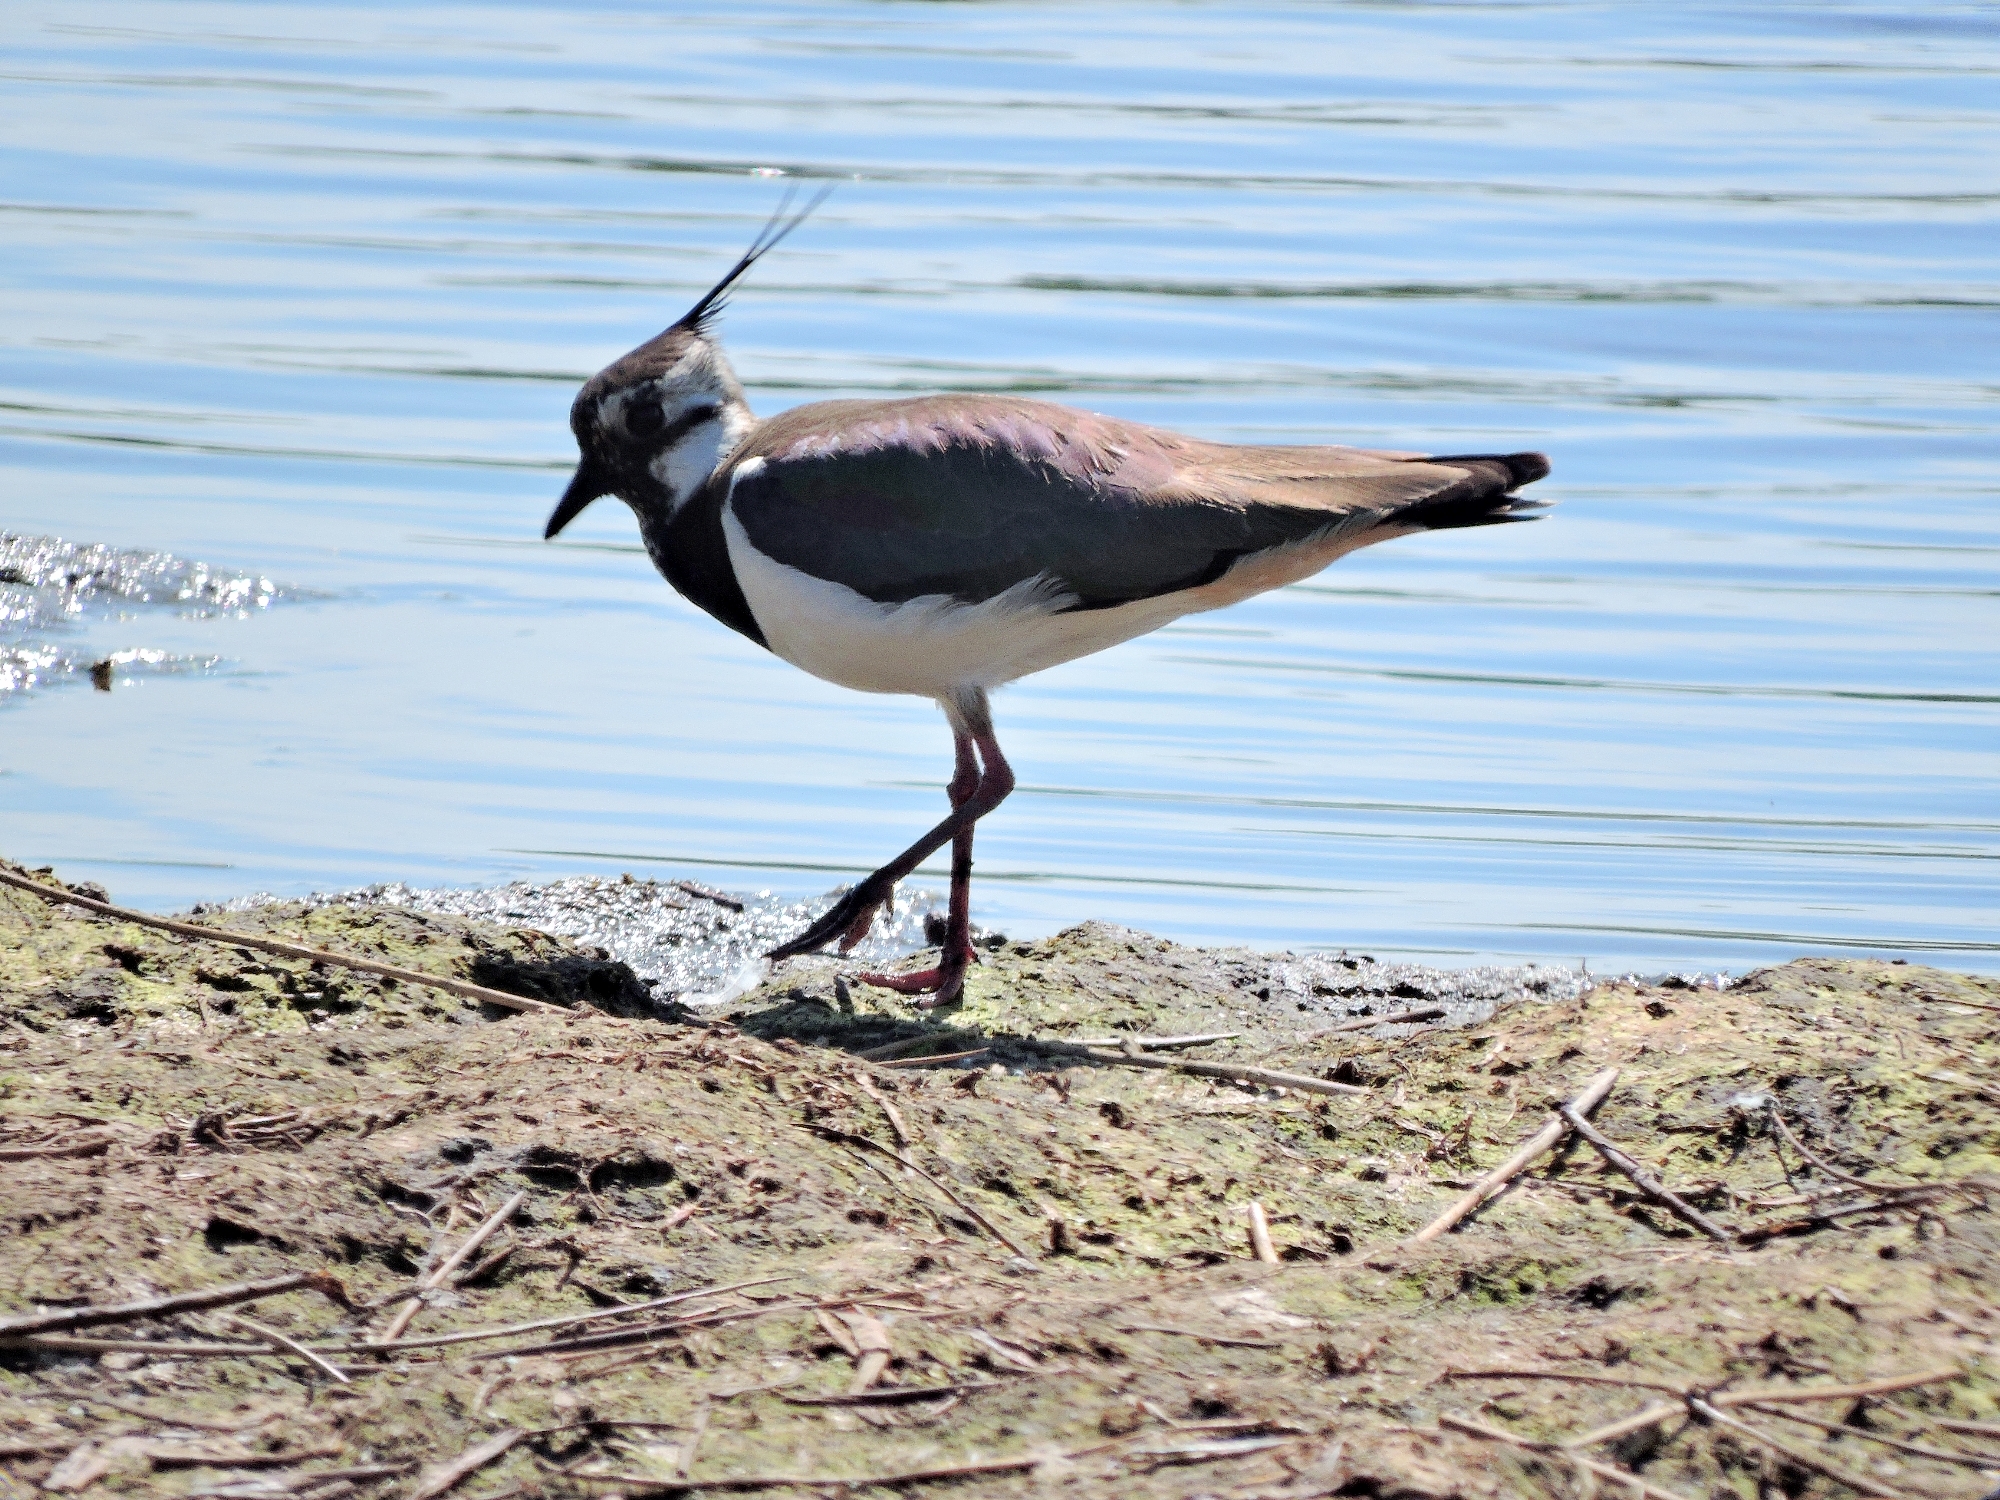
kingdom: Animalia
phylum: Chordata
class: Aves
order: Charadriiformes
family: Charadriidae
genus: Vanellus
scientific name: Vanellus vanellus
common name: Northern lapwing
